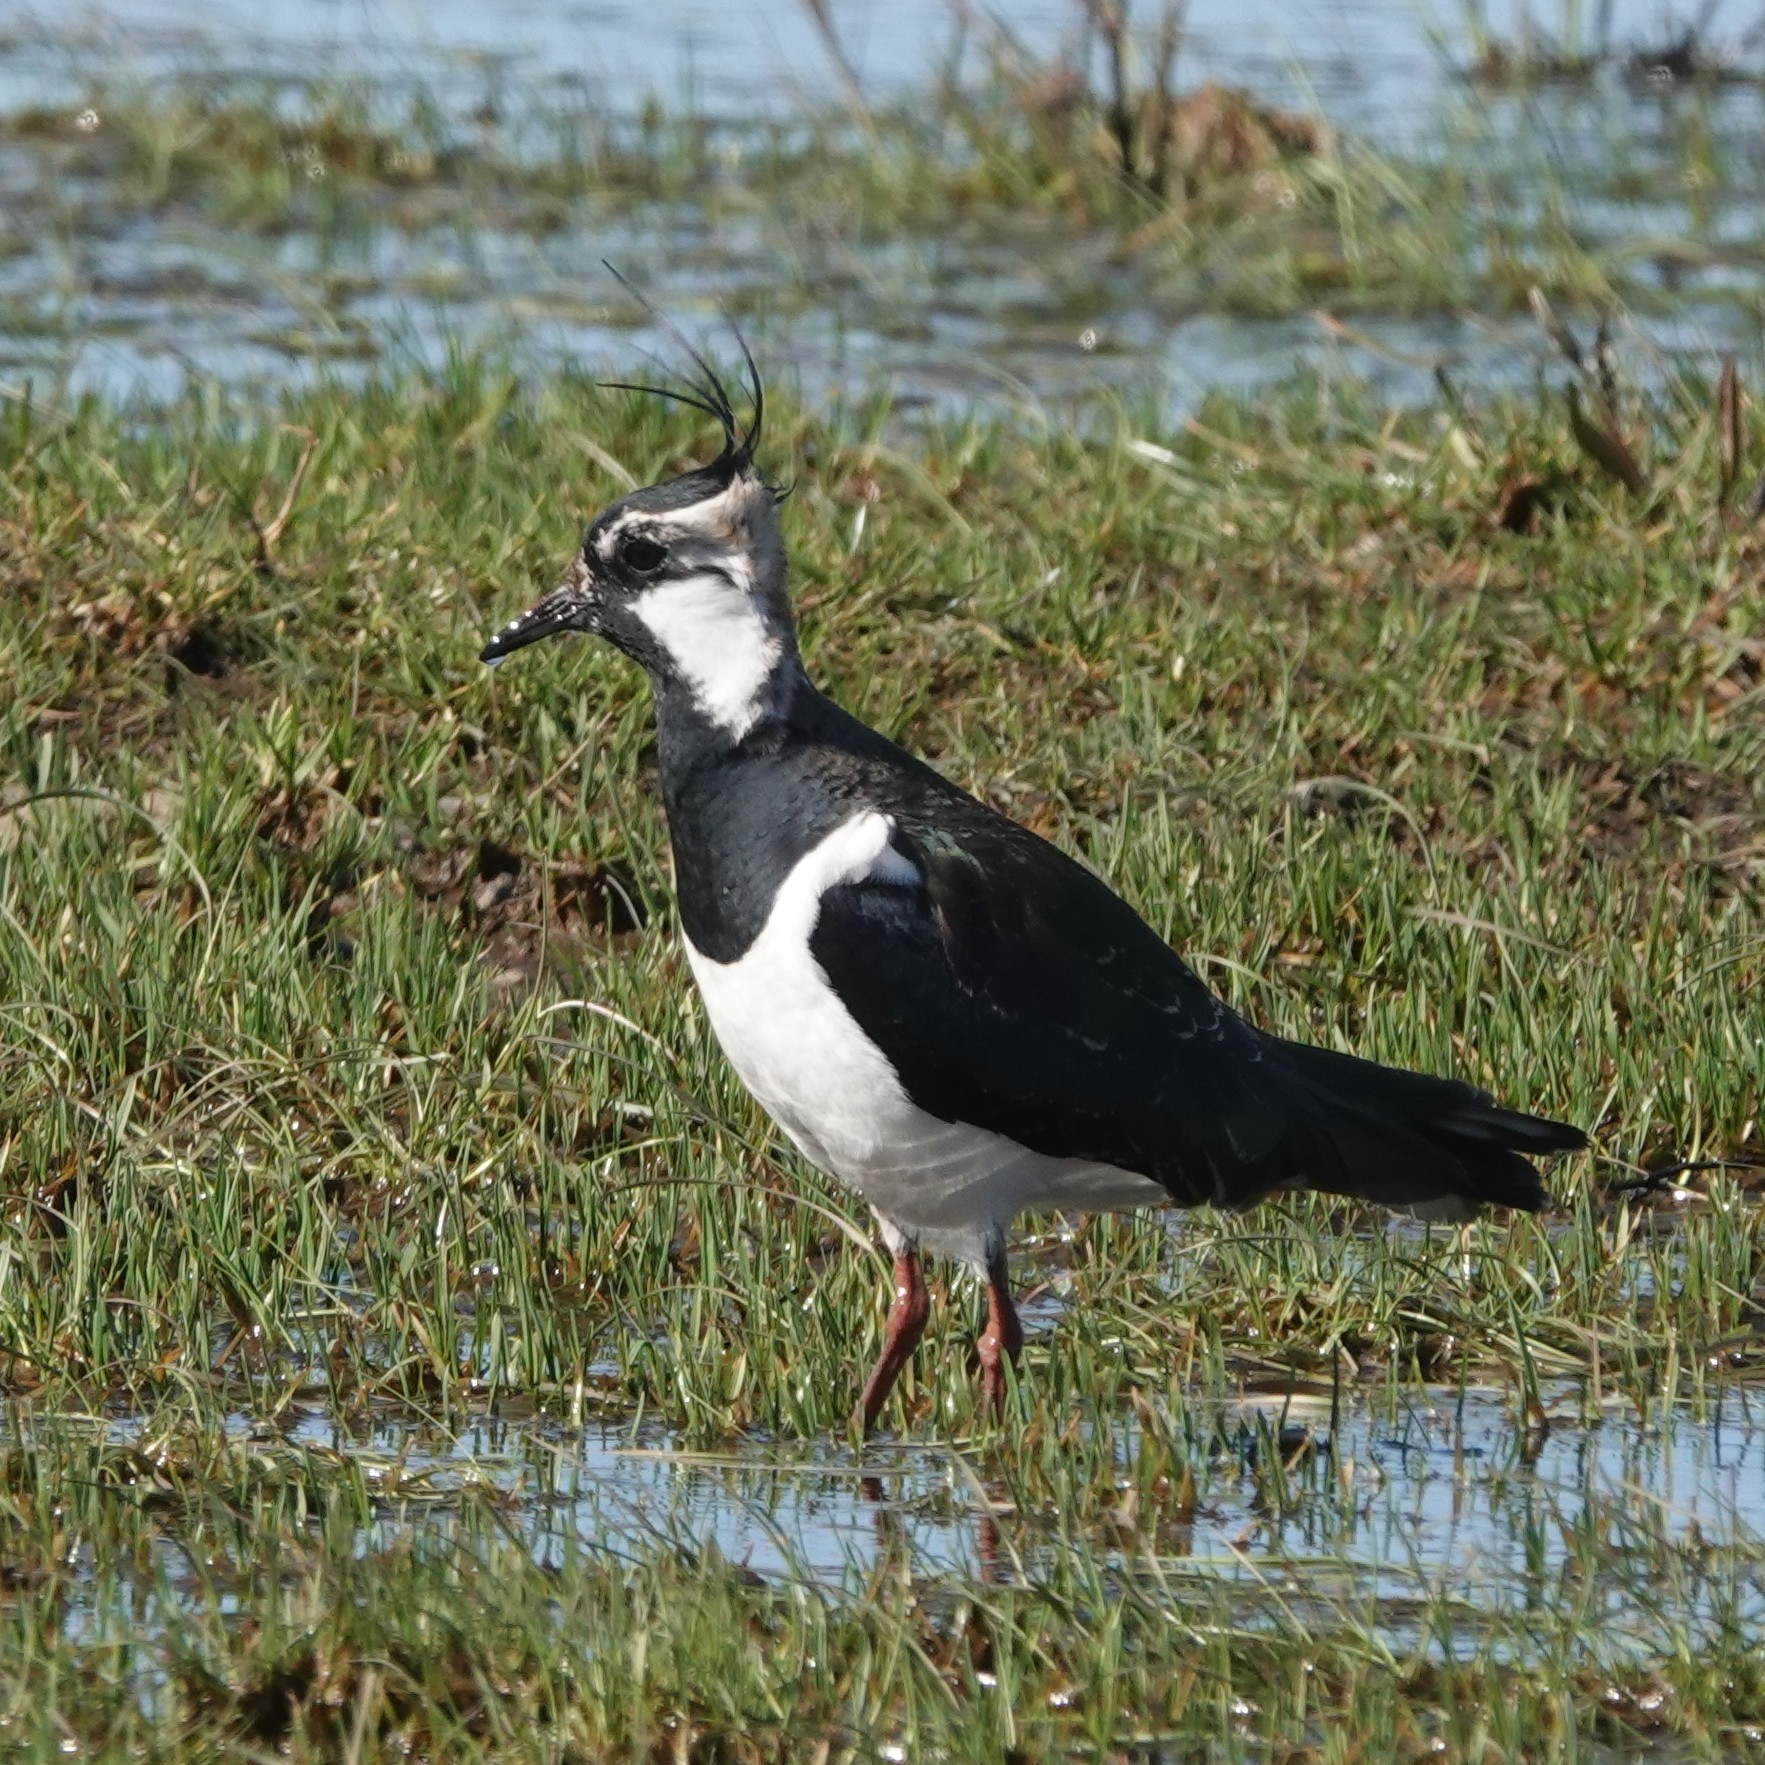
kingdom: Animalia
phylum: Chordata
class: Aves
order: Charadriiformes
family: Charadriidae
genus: Vanellus
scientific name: Vanellus vanellus
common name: Northern lapwing
